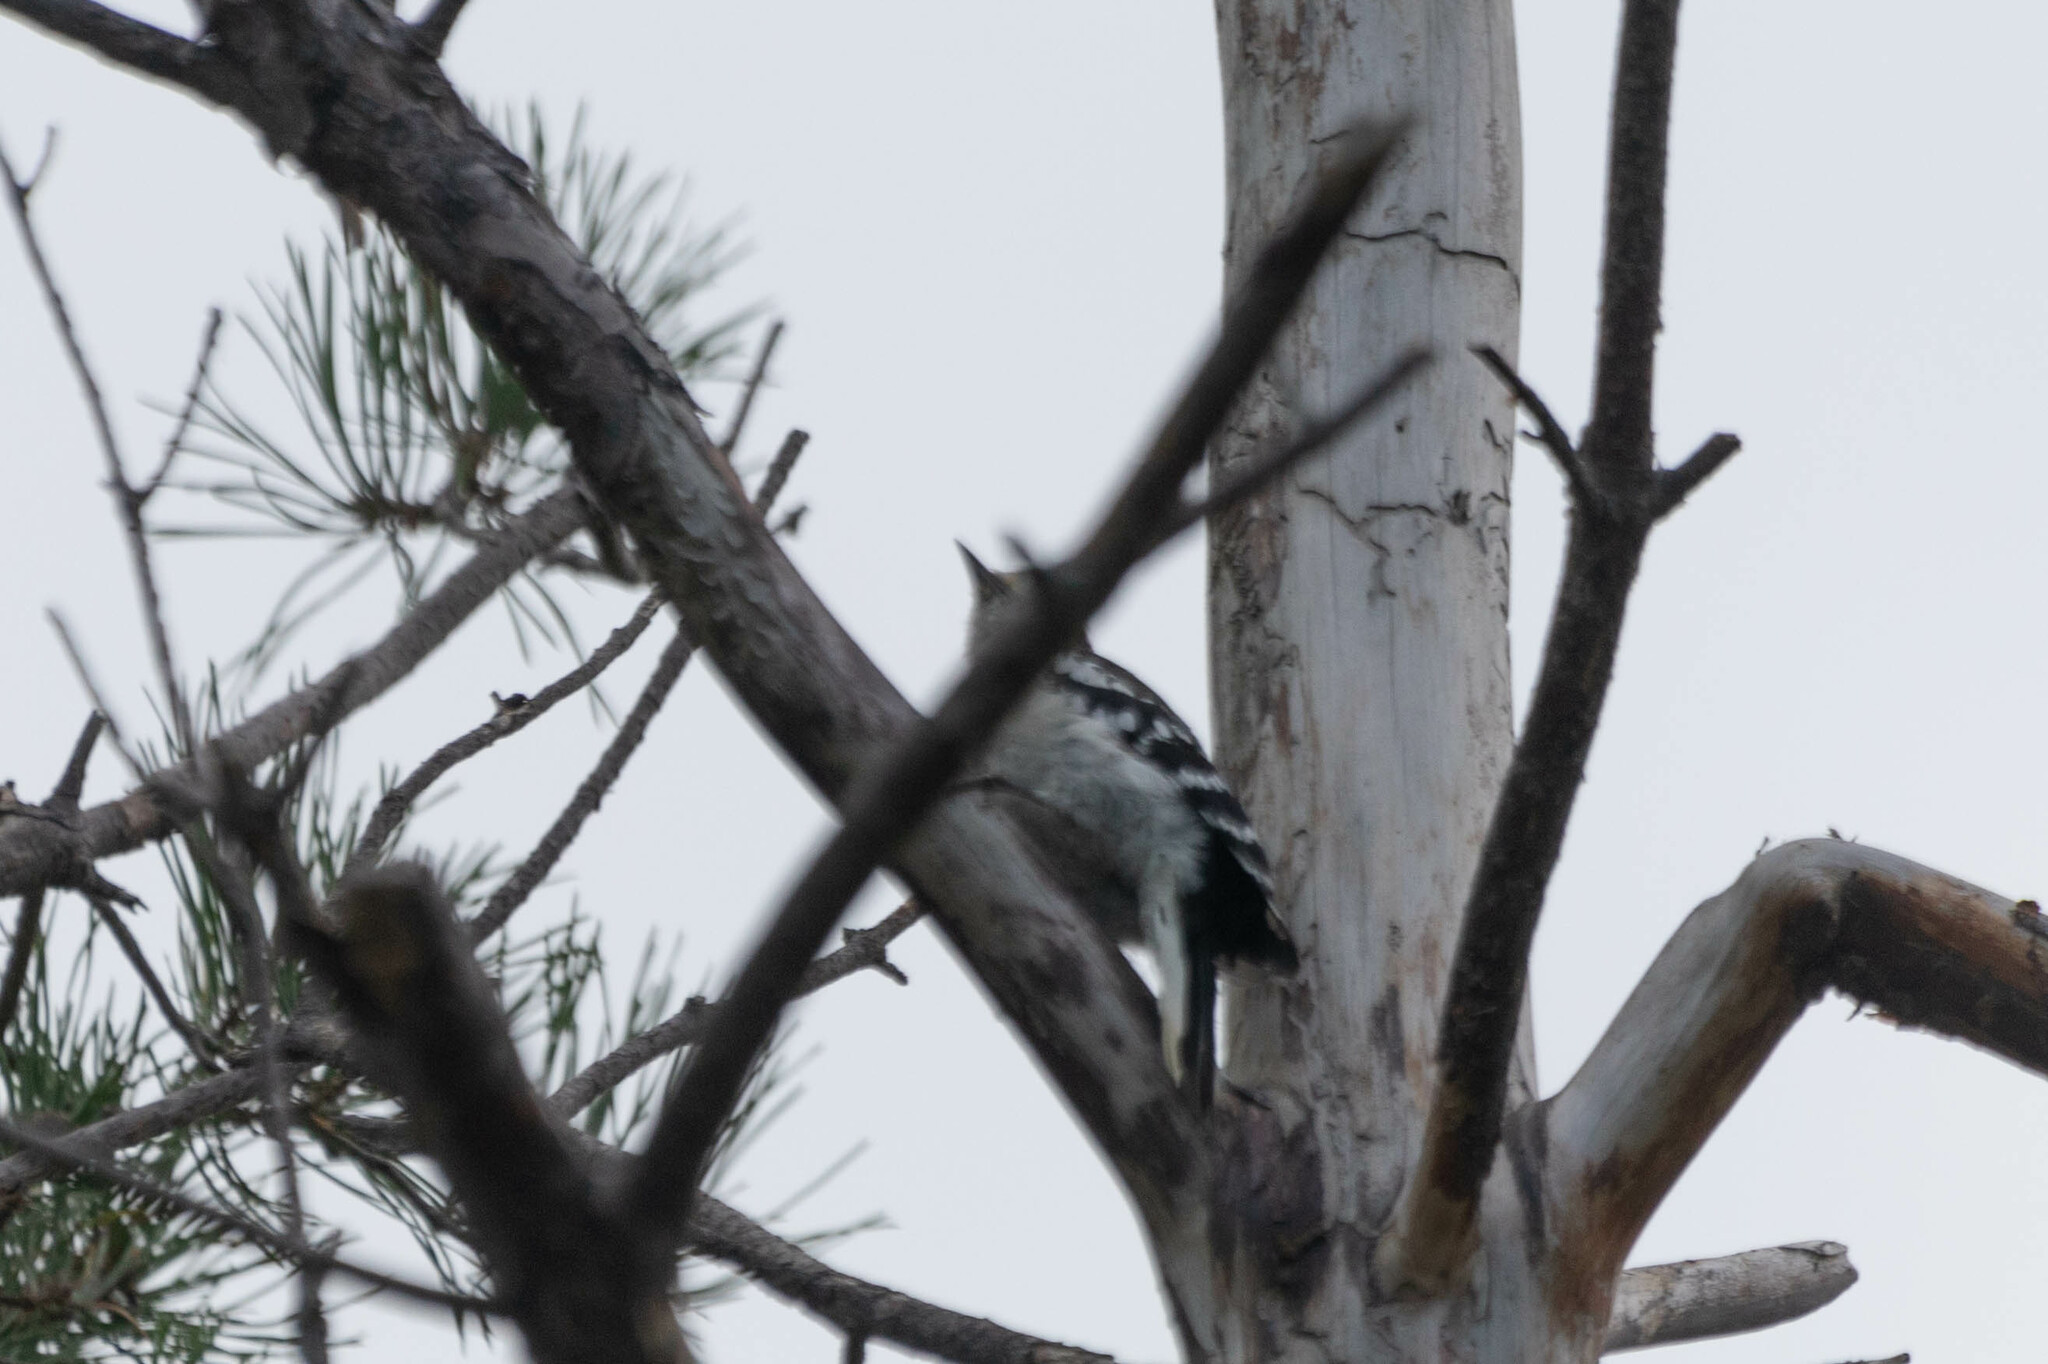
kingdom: Animalia
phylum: Chordata
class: Aves
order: Piciformes
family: Picidae
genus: Dryobates
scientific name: Dryobates pubescens
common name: Downy woodpecker
